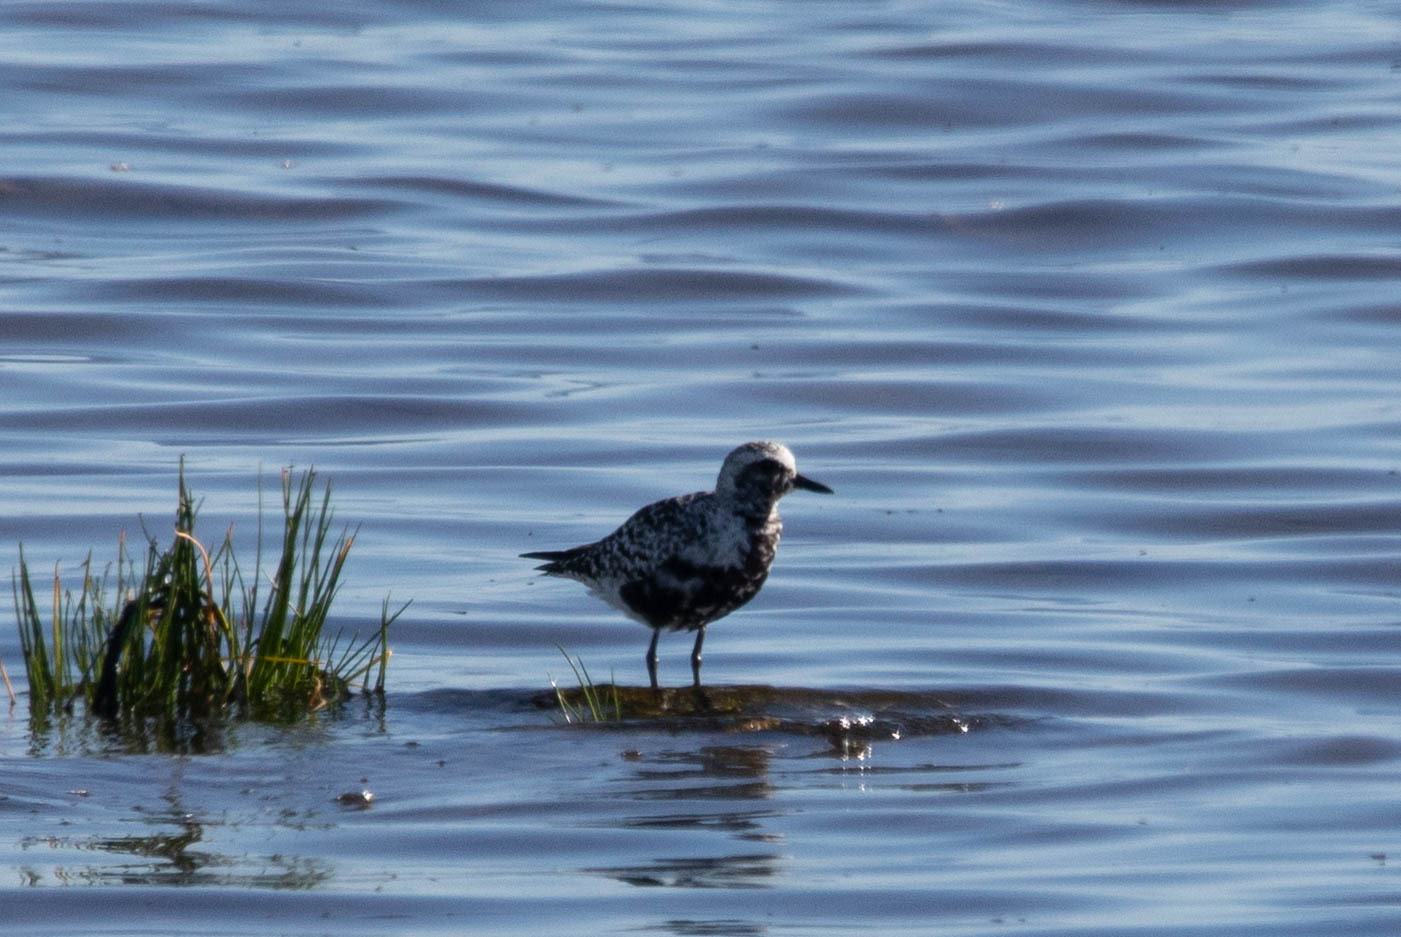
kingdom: Animalia
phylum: Chordata
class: Aves
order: Charadriiformes
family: Charadriidae
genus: Pluvialis
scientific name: Pluvialis squatarola
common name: Grey plover
